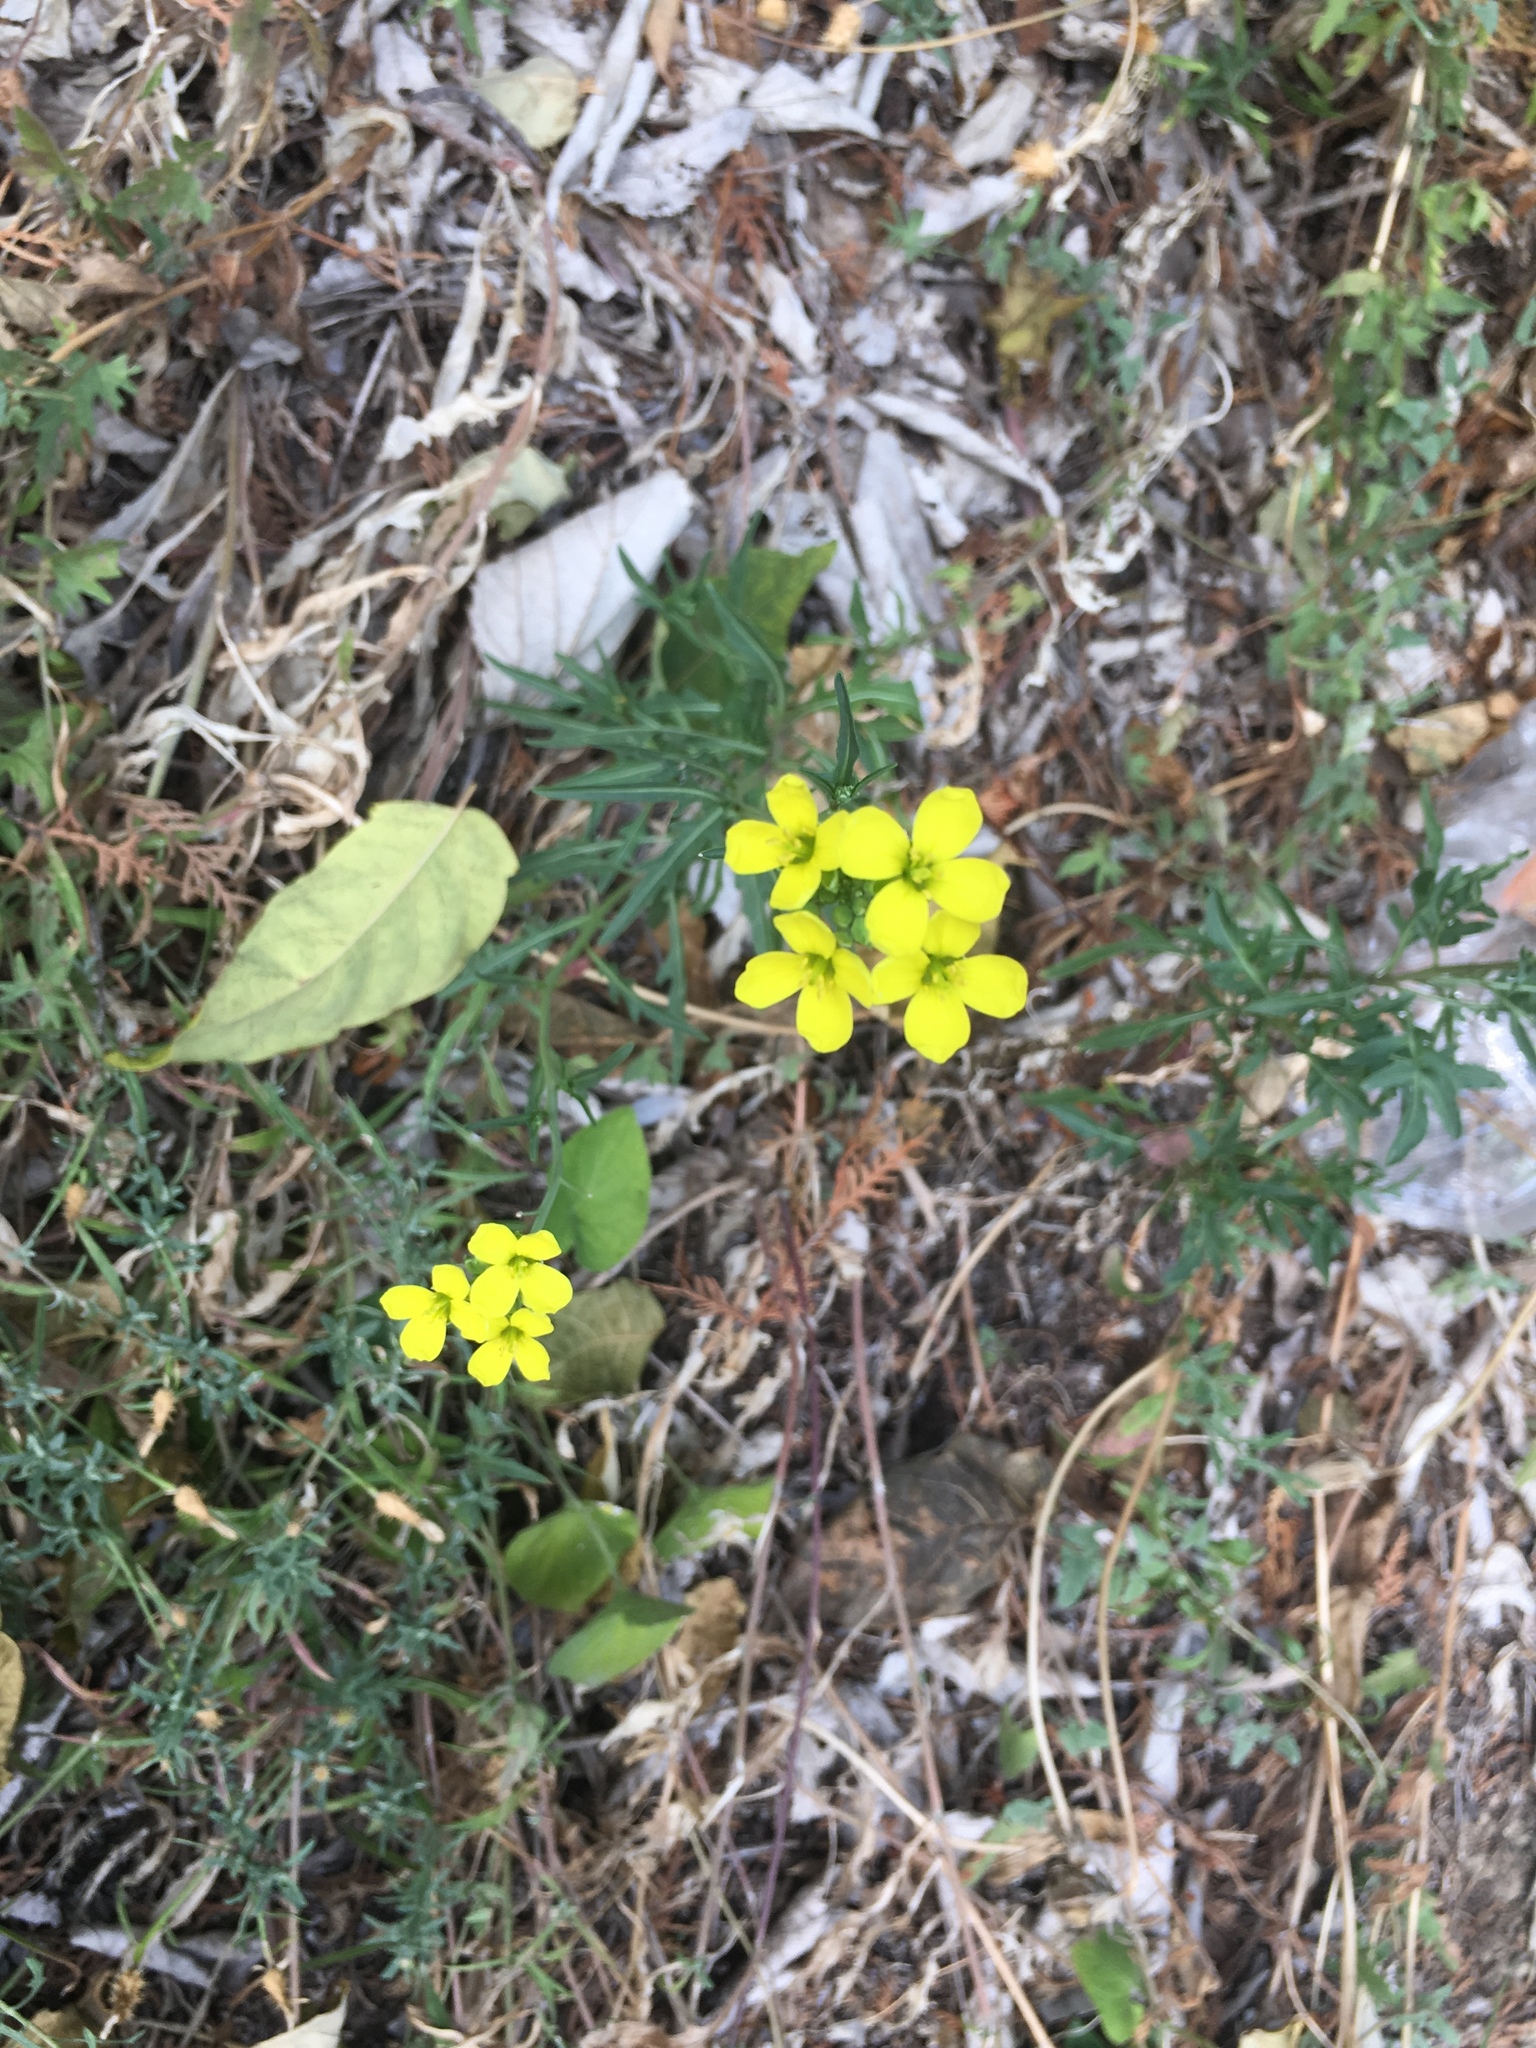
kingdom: Plantae
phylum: Tracheophyta
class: Magnoliopsida
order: Brassicales
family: Brassicaceae
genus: Diplotaxis
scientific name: Diplotaxis tenuifolia
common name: Perennial wall-rocket
